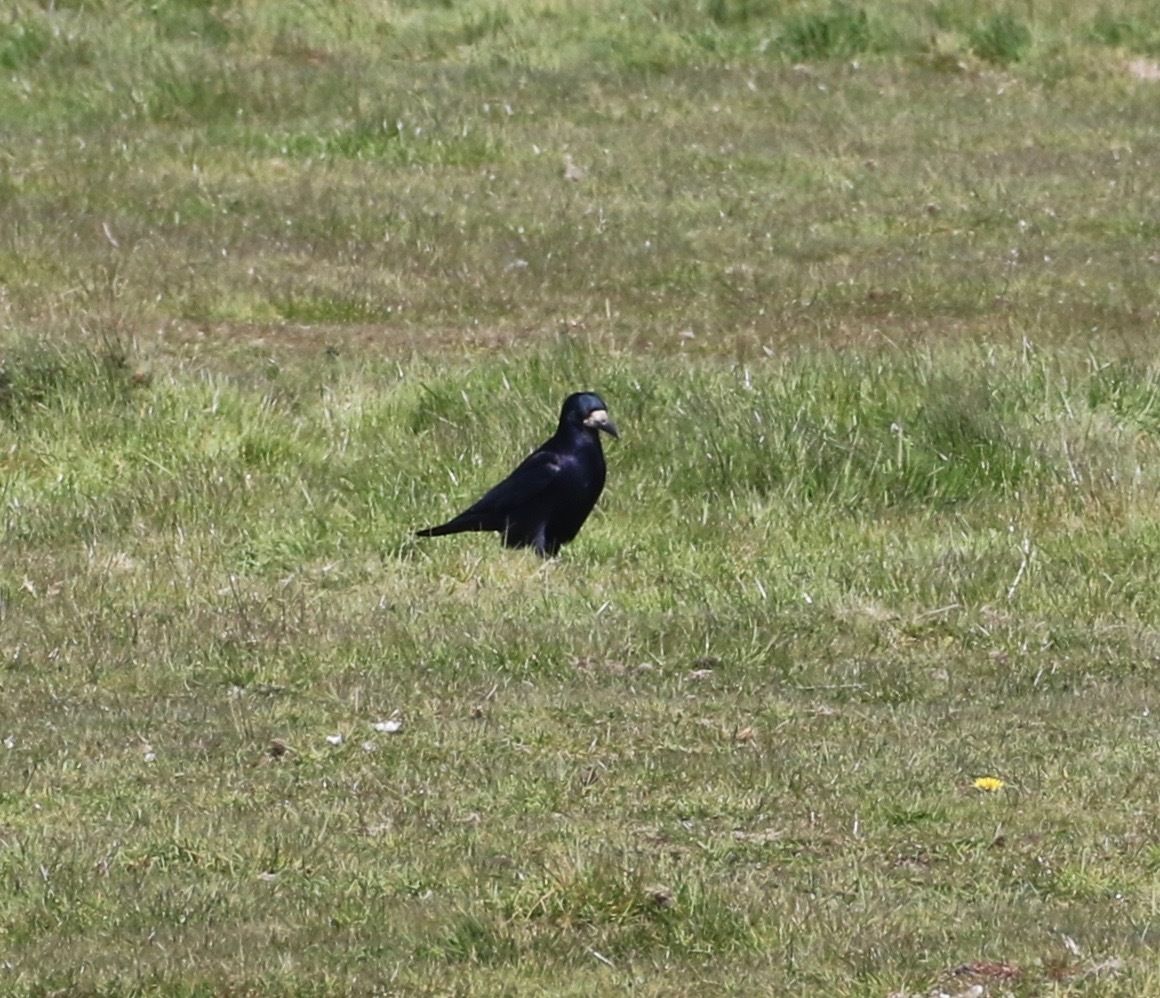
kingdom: Animalia
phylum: Chordata
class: Aves
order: Passeriformes
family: Corvidae
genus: Corvus
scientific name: Corvus frugilegus
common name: Rook
